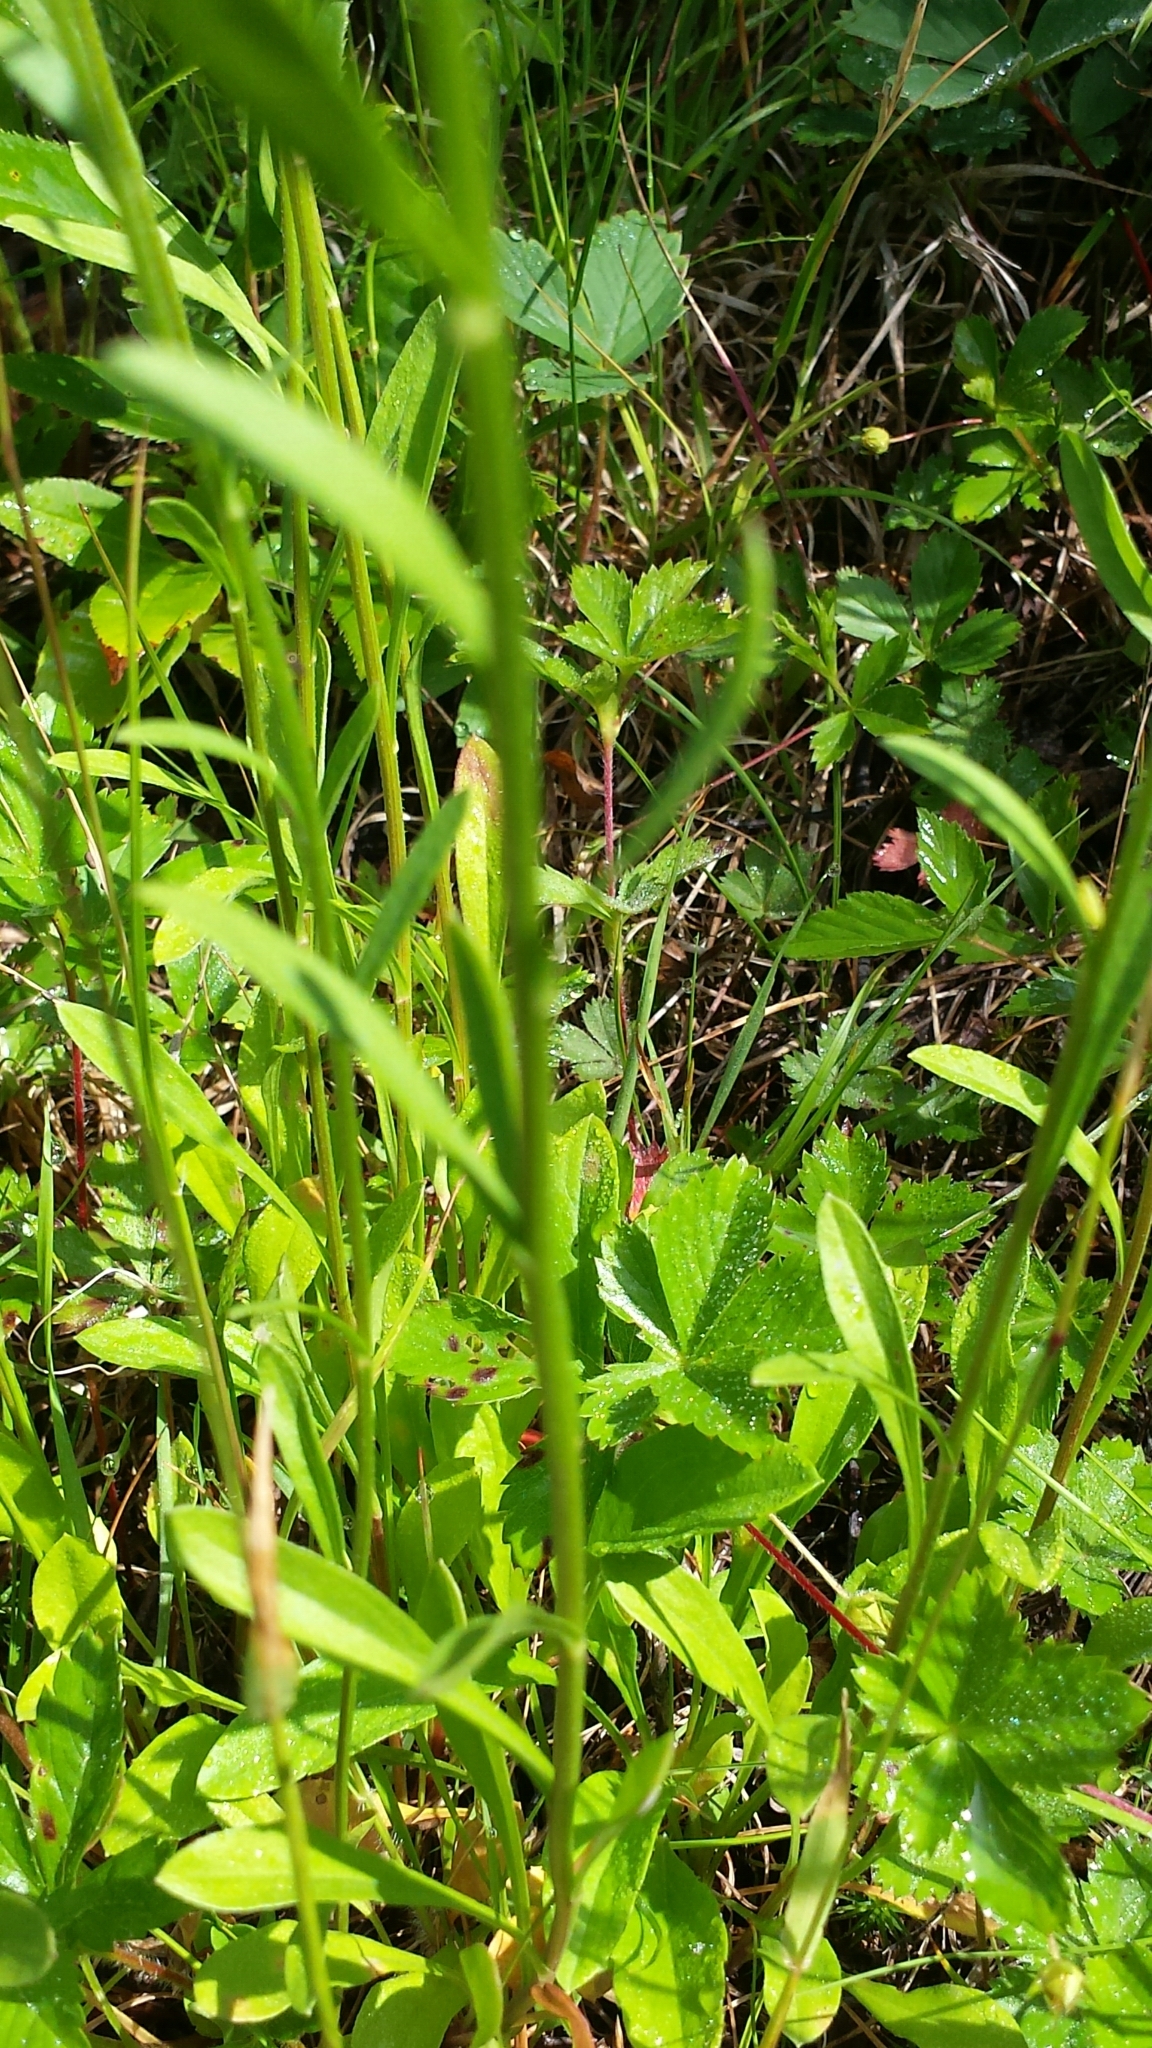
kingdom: Plantae
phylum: Tracheophyta
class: Magnoliopsida
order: Asterales
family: Asteraceae
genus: Erigeron
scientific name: Erigeron strigosus
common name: Common eastern fleabane
